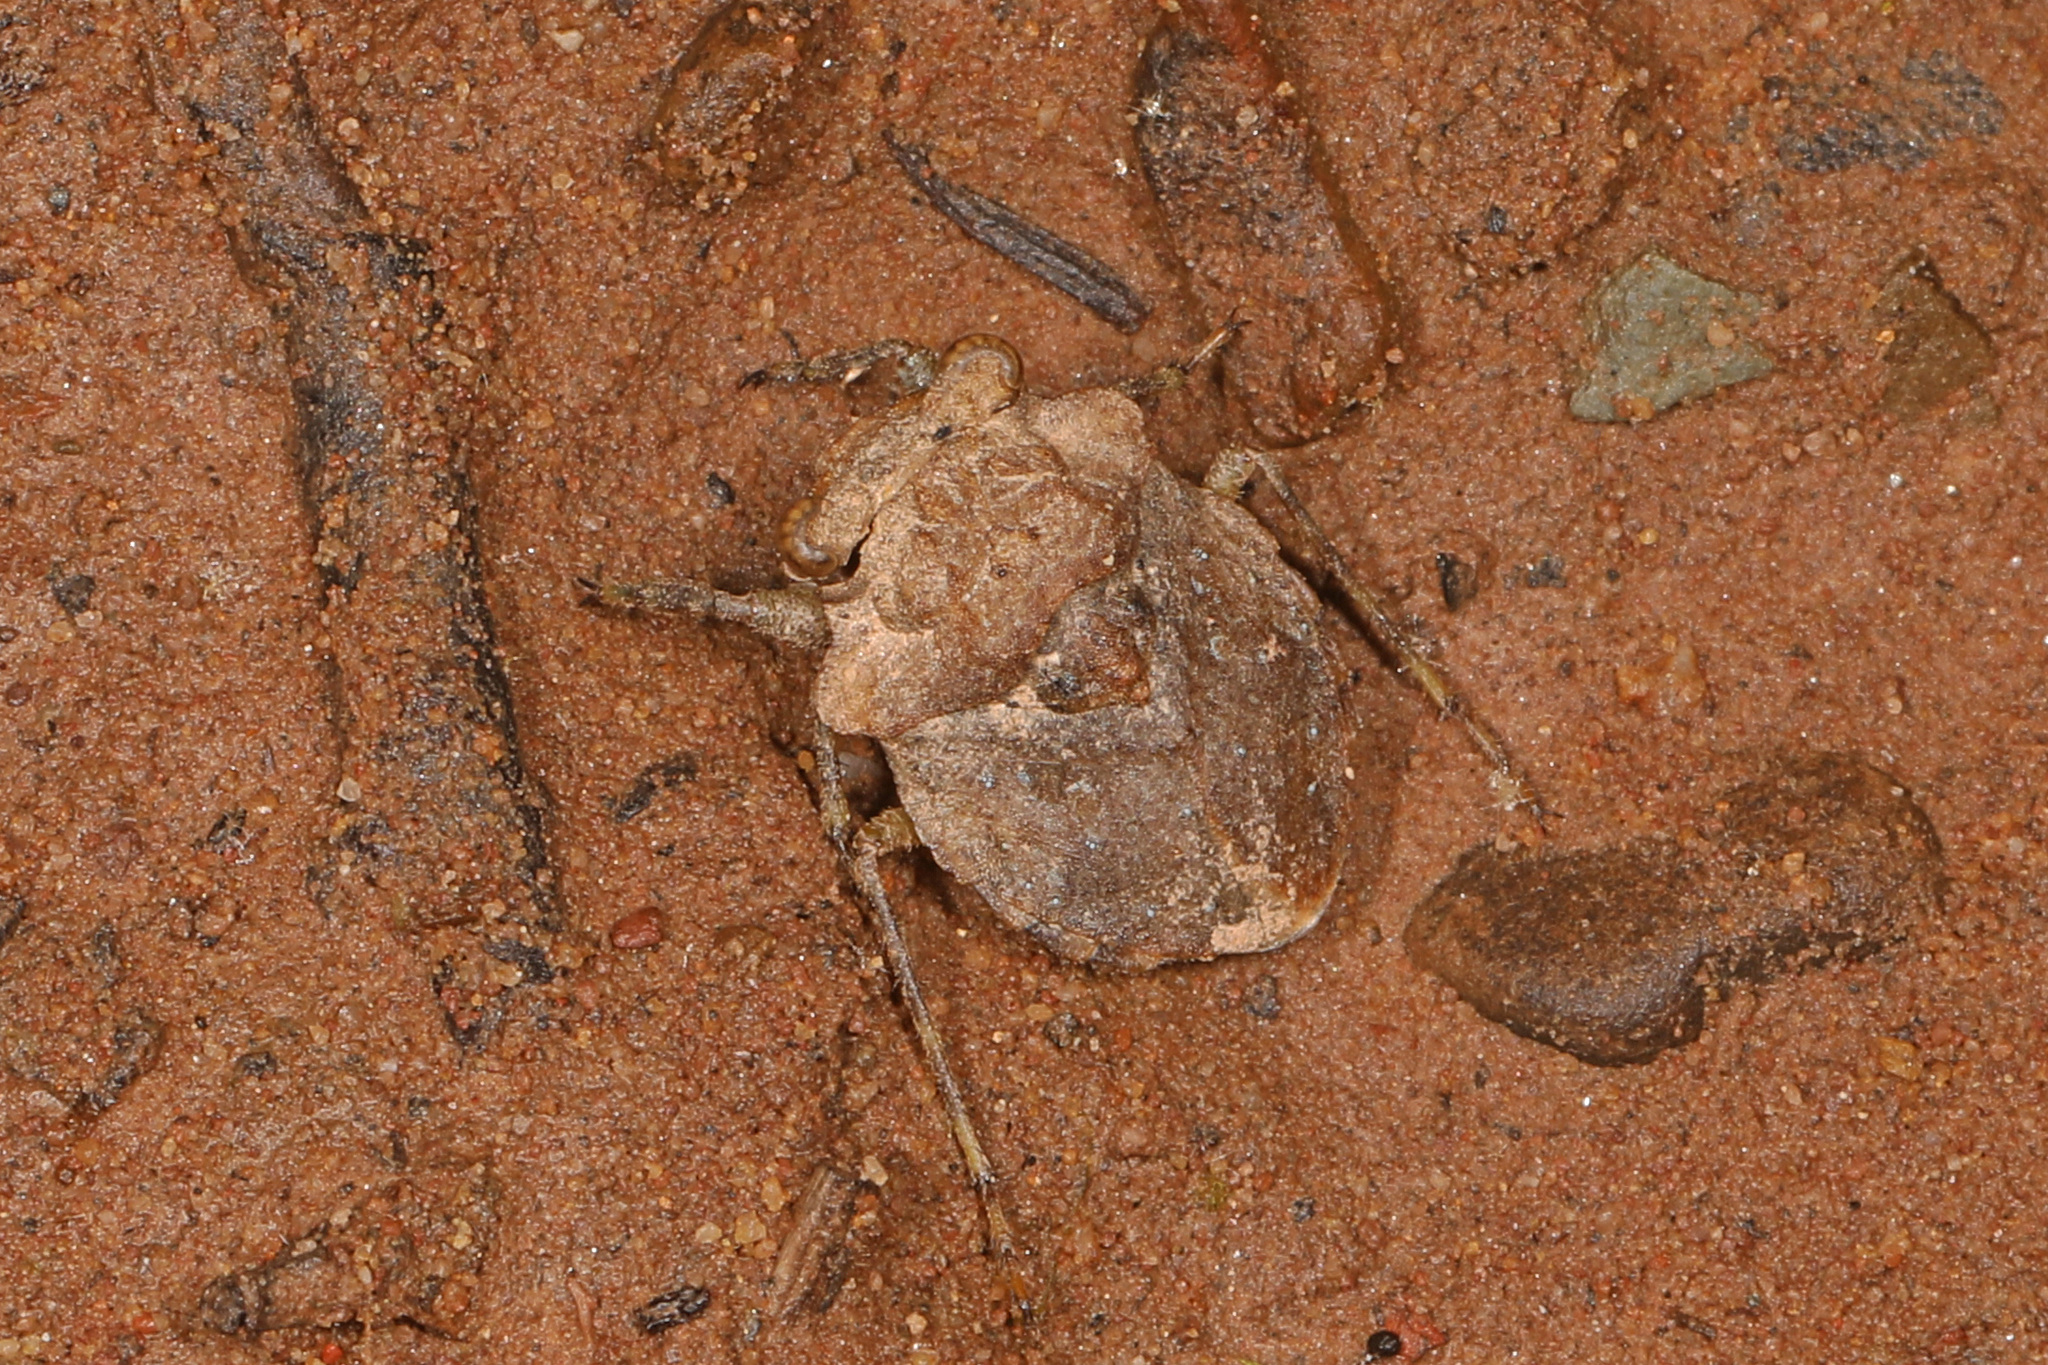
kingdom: Animalia
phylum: Arthropoda
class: Insecta
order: Hemiptera
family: Gelastocoridae
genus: Gelastocoris
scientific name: Gelastocoris oculatus
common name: Toad bug
